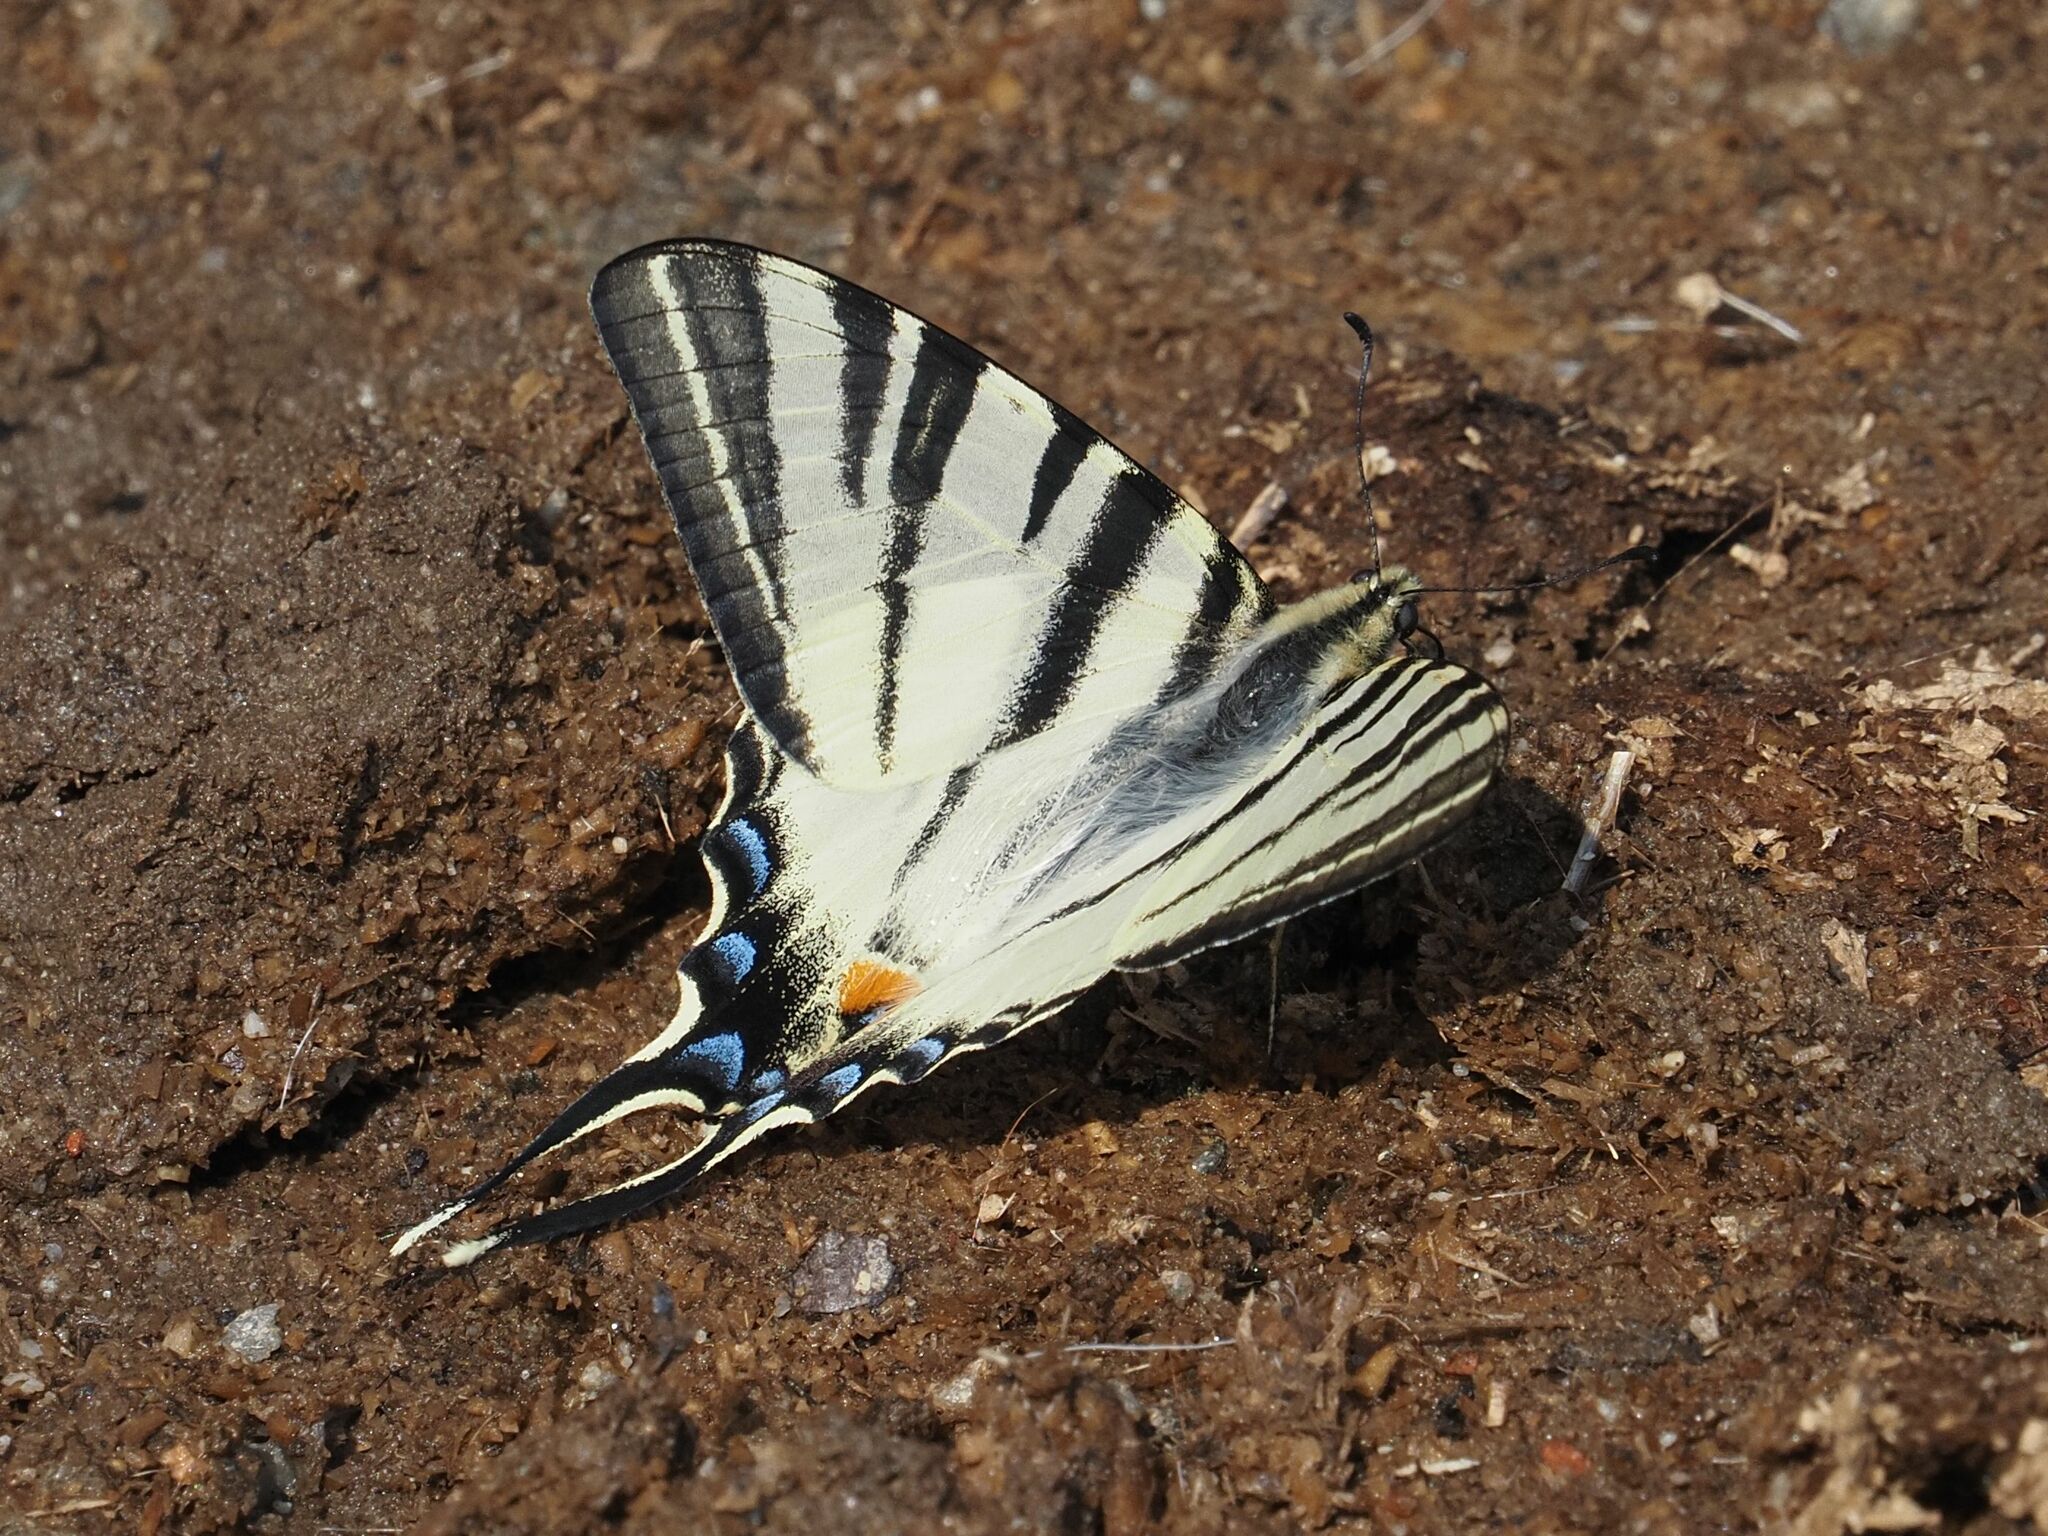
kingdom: Animalia
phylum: Arthropoda
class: Insecta
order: Lepidoptera
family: Papilionidae
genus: Iphiclides
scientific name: Iphiclides podalirius
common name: Scarce swallowtail
